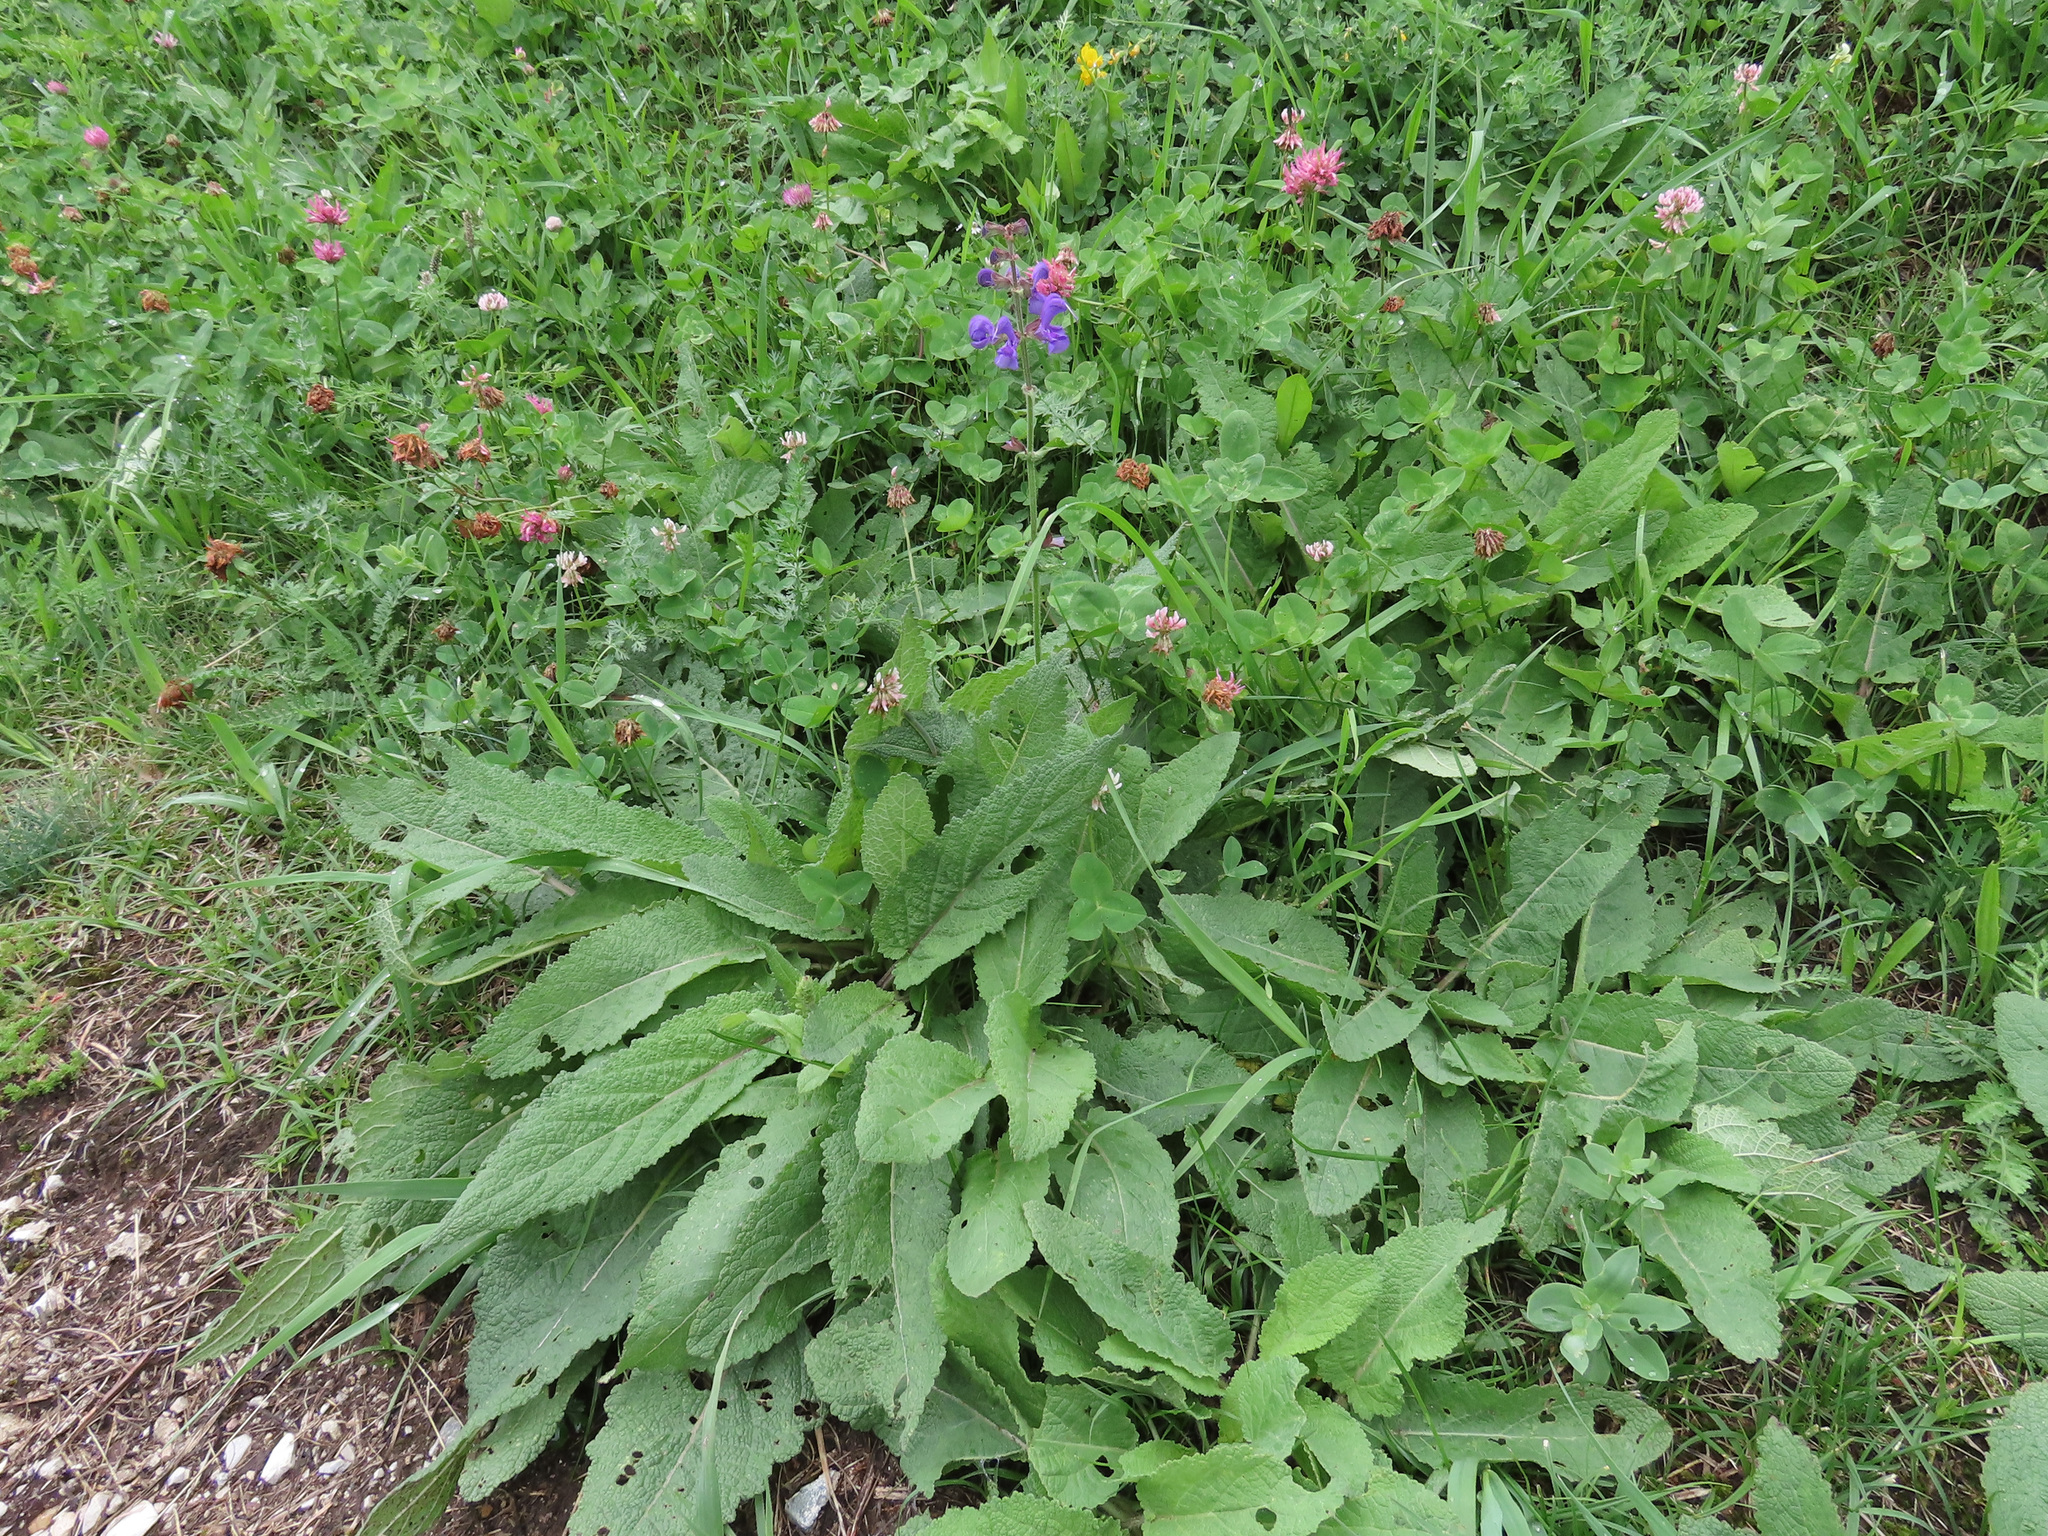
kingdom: Plantae
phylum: Tracheophyta
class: Magnoliopsida
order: Lamiales
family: Lamiaceae
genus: Salvia
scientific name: Salvia pratensis
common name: Meadow sage
